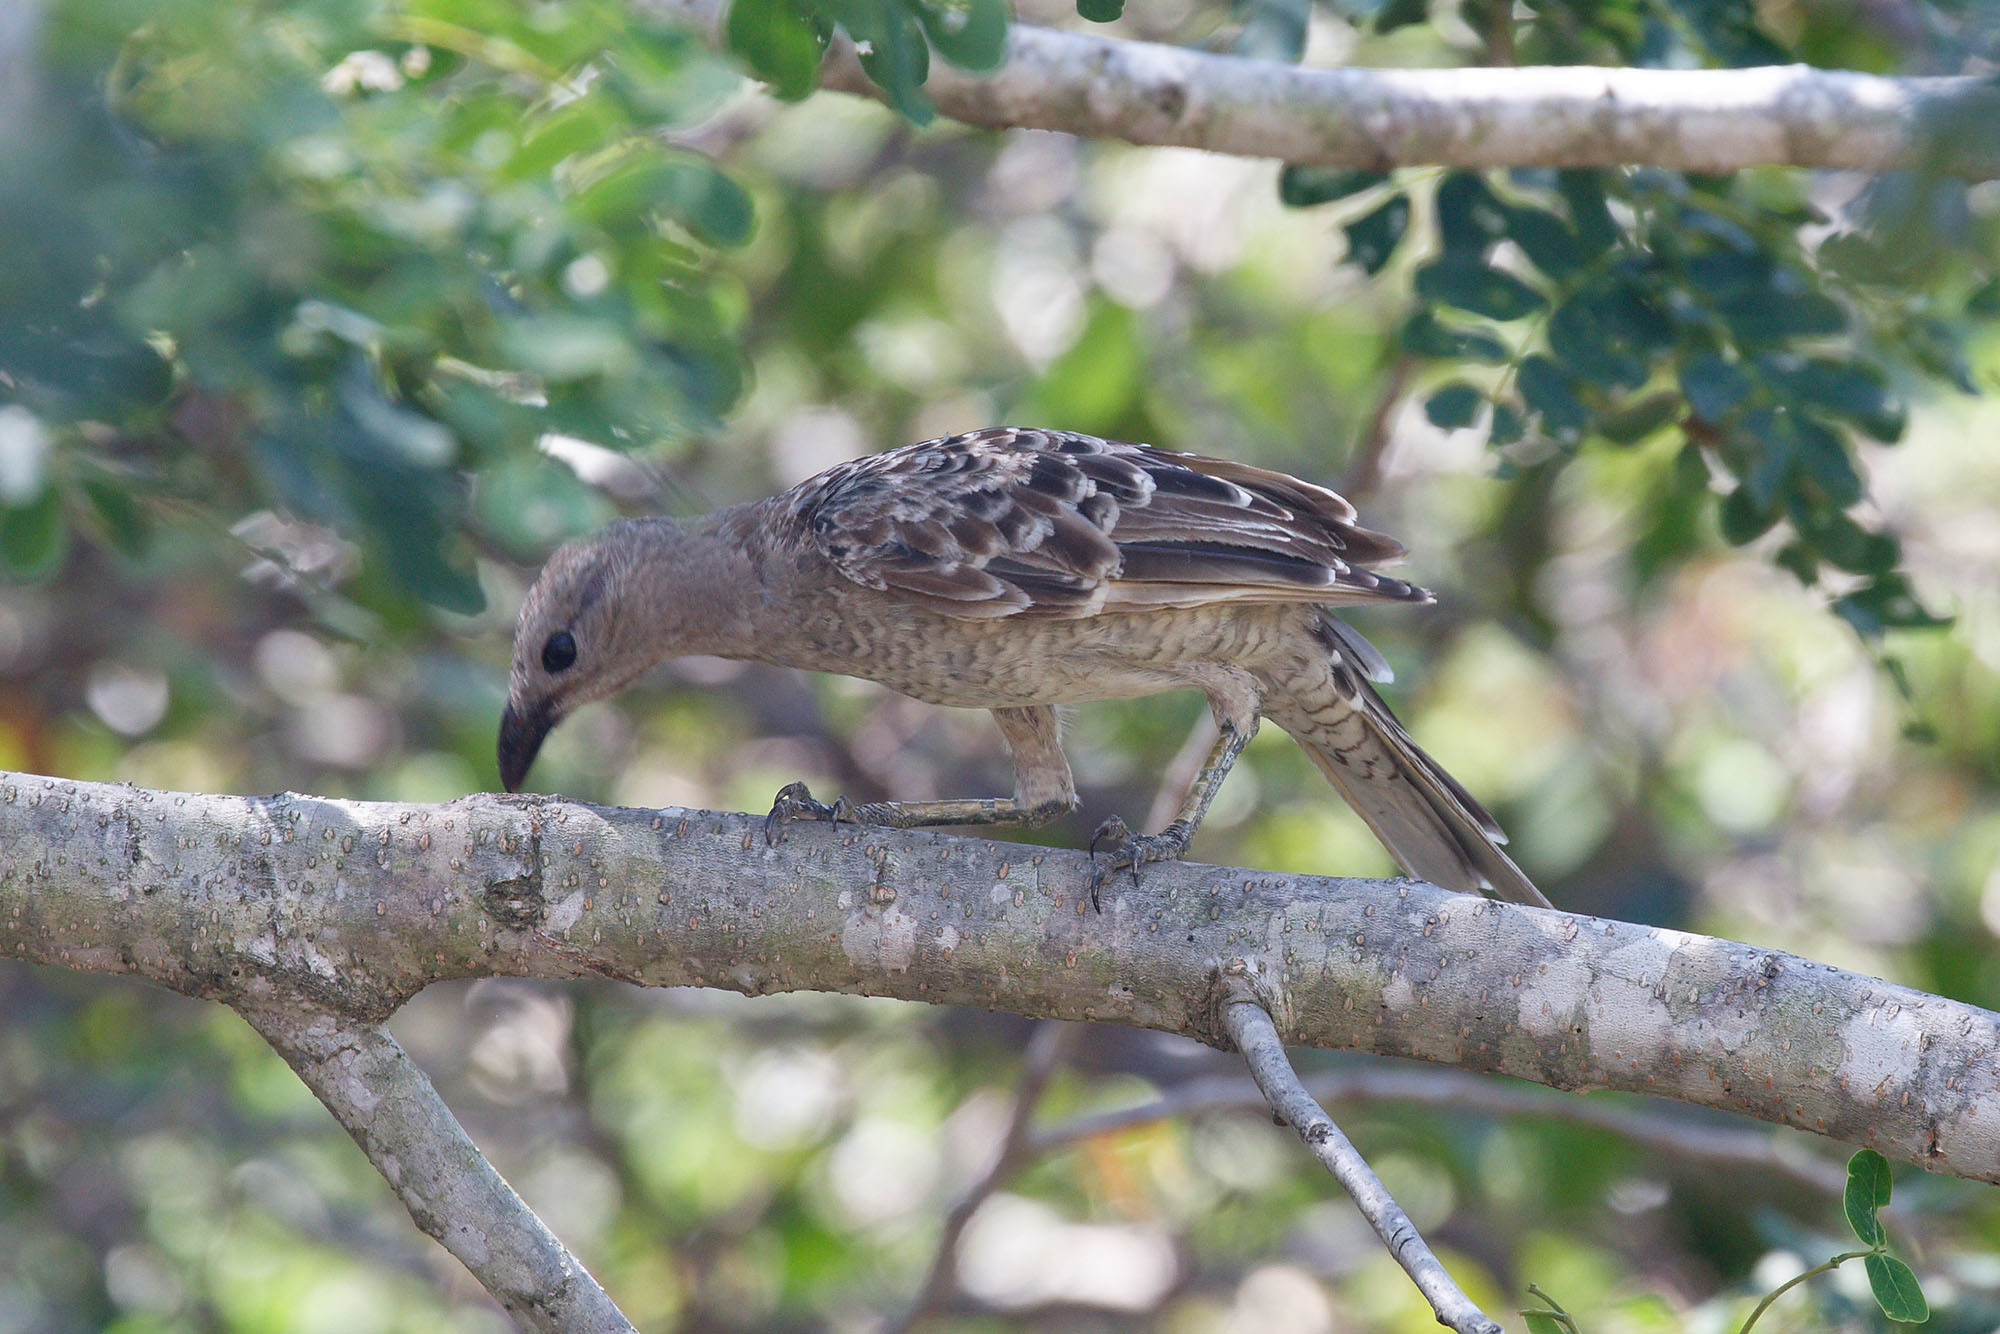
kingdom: Animalia
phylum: Chordata
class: Aves
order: Passeriformes
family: Ptilonorhynchidae
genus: Chlamydera
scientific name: Chlamydera nuchalis
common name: Great bowerbird
